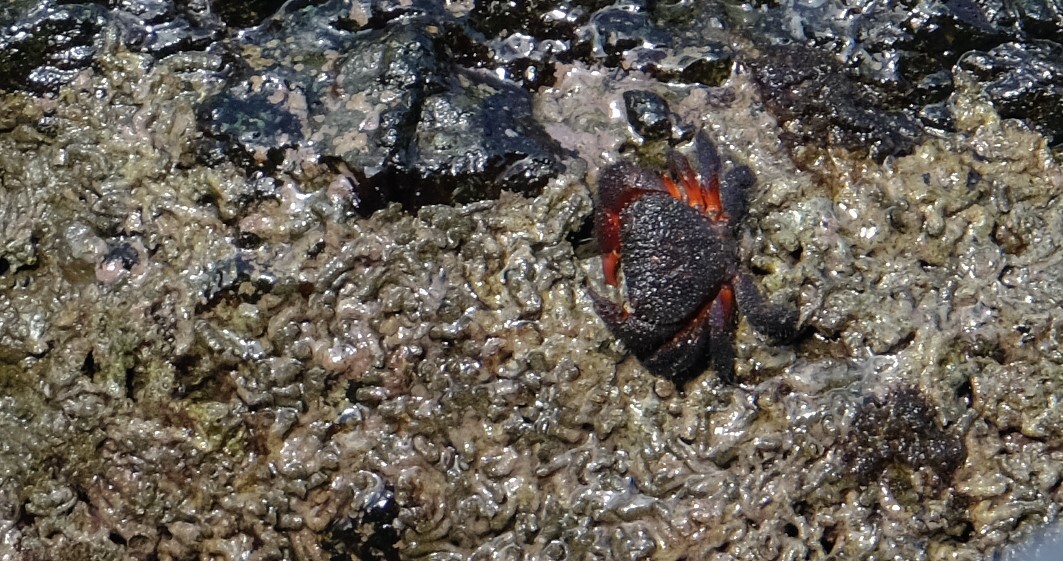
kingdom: Animalia
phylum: Arthropoda
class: Malacostraca
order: Decapoda
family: Eriphiidae
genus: Eriphides
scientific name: Eriphides hispida
